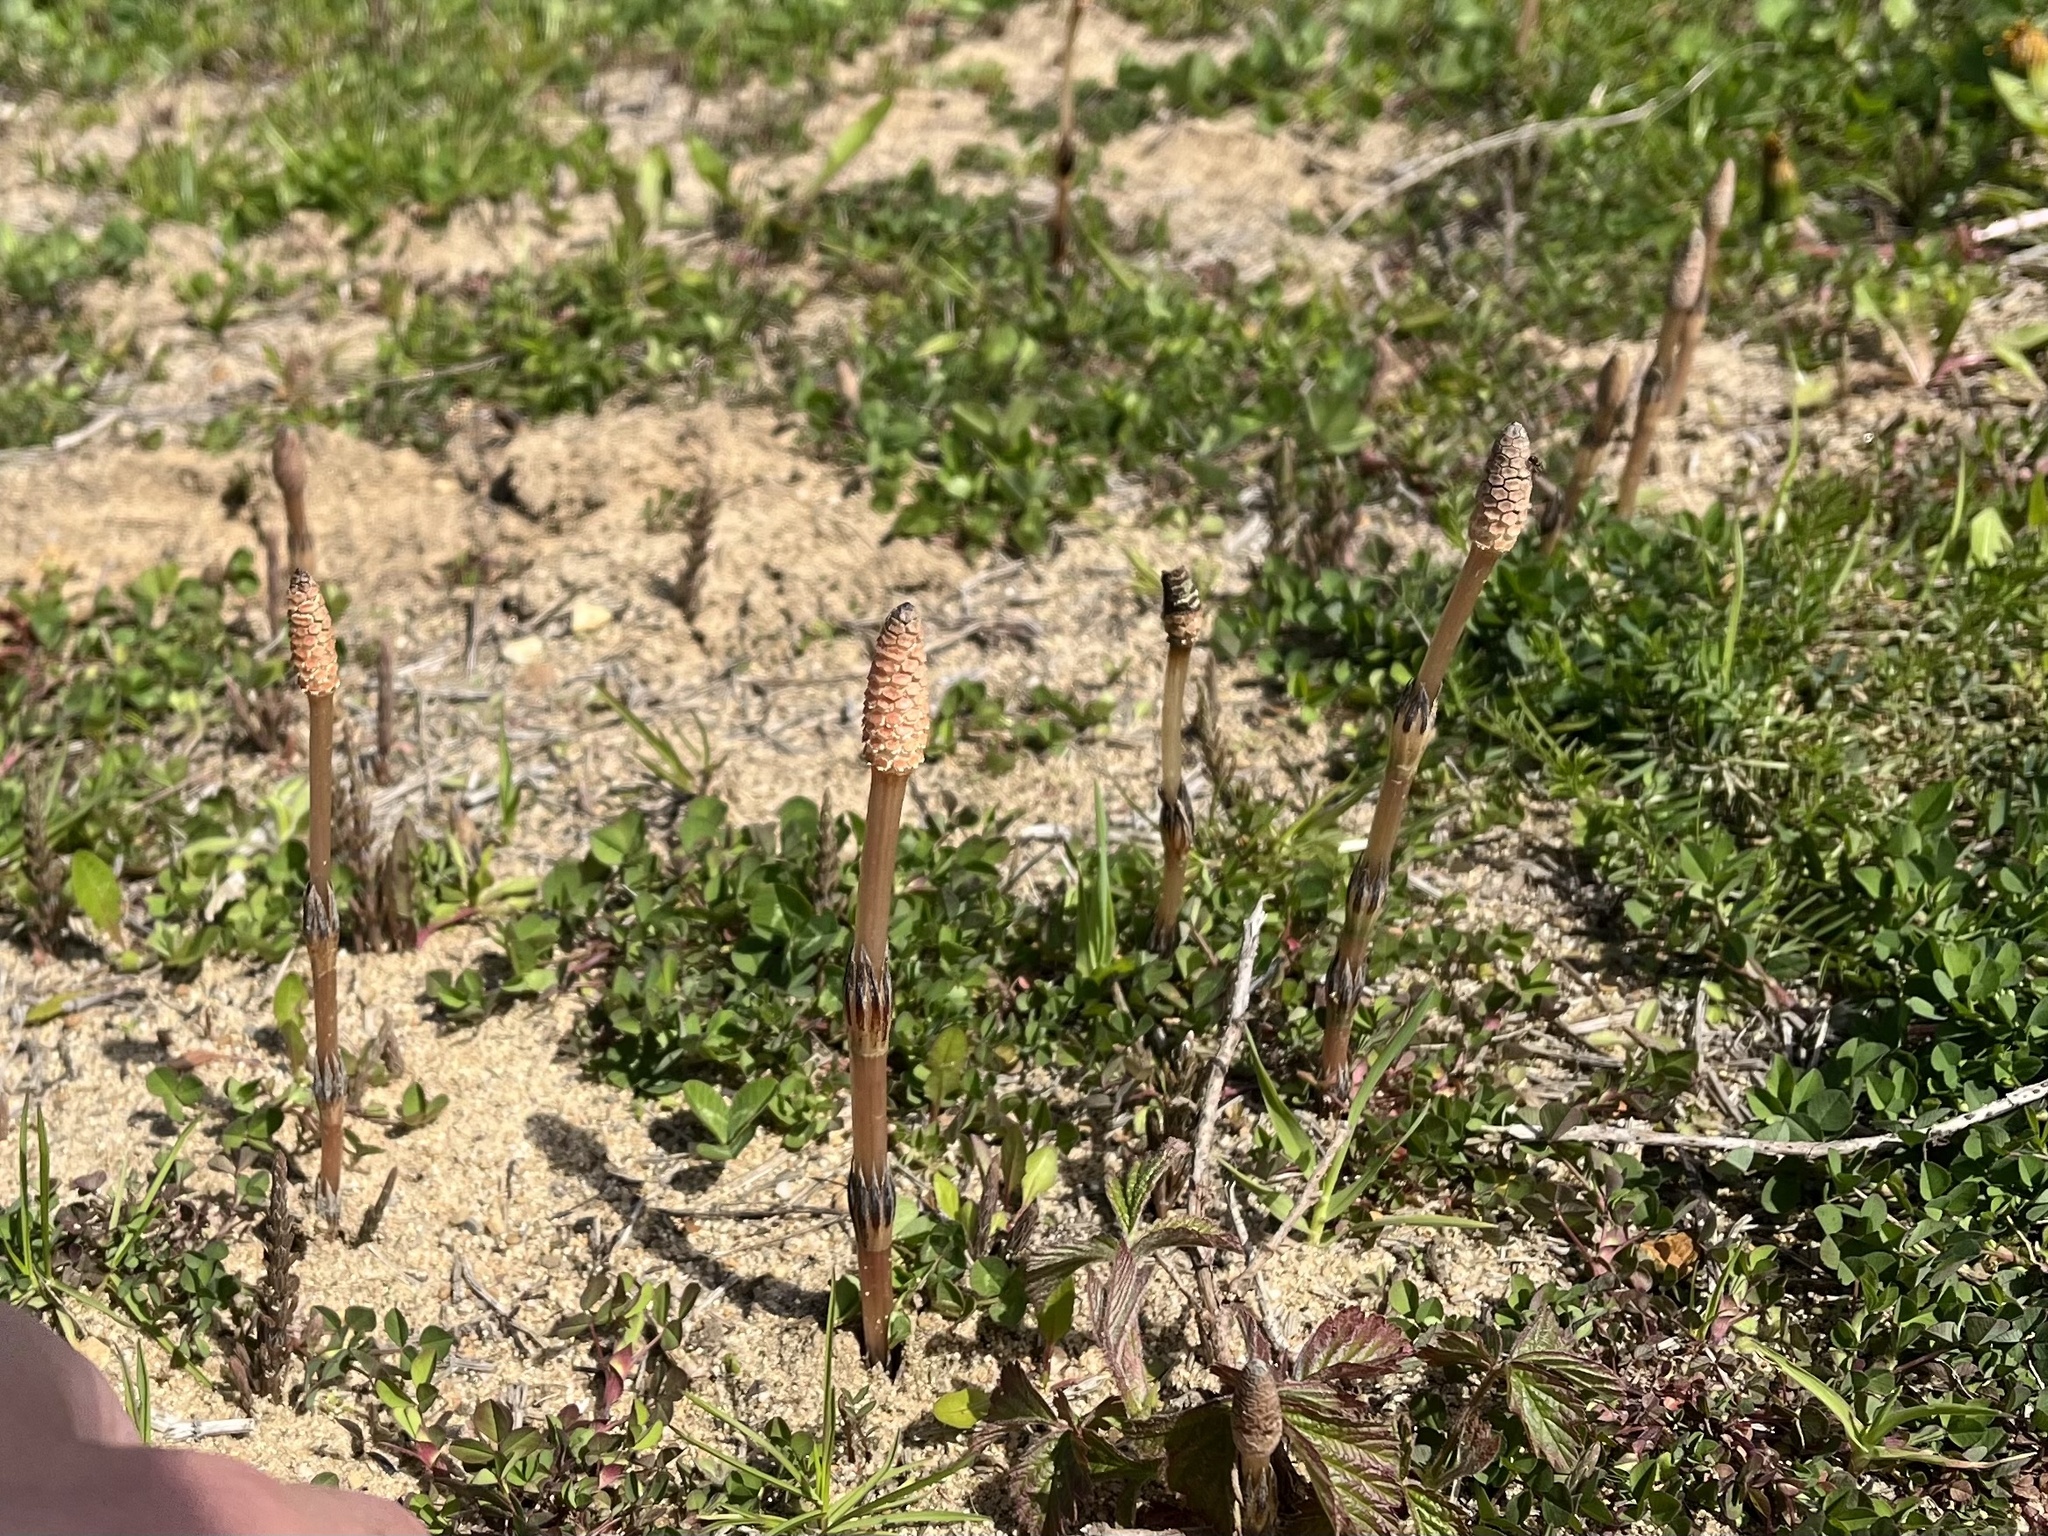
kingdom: Plantae
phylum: Tracheophyta
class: Polypodiopsida
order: Equisetales
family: Equisetaceae
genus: Equisetum
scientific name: Equisetum arvense
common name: Field horsetail
